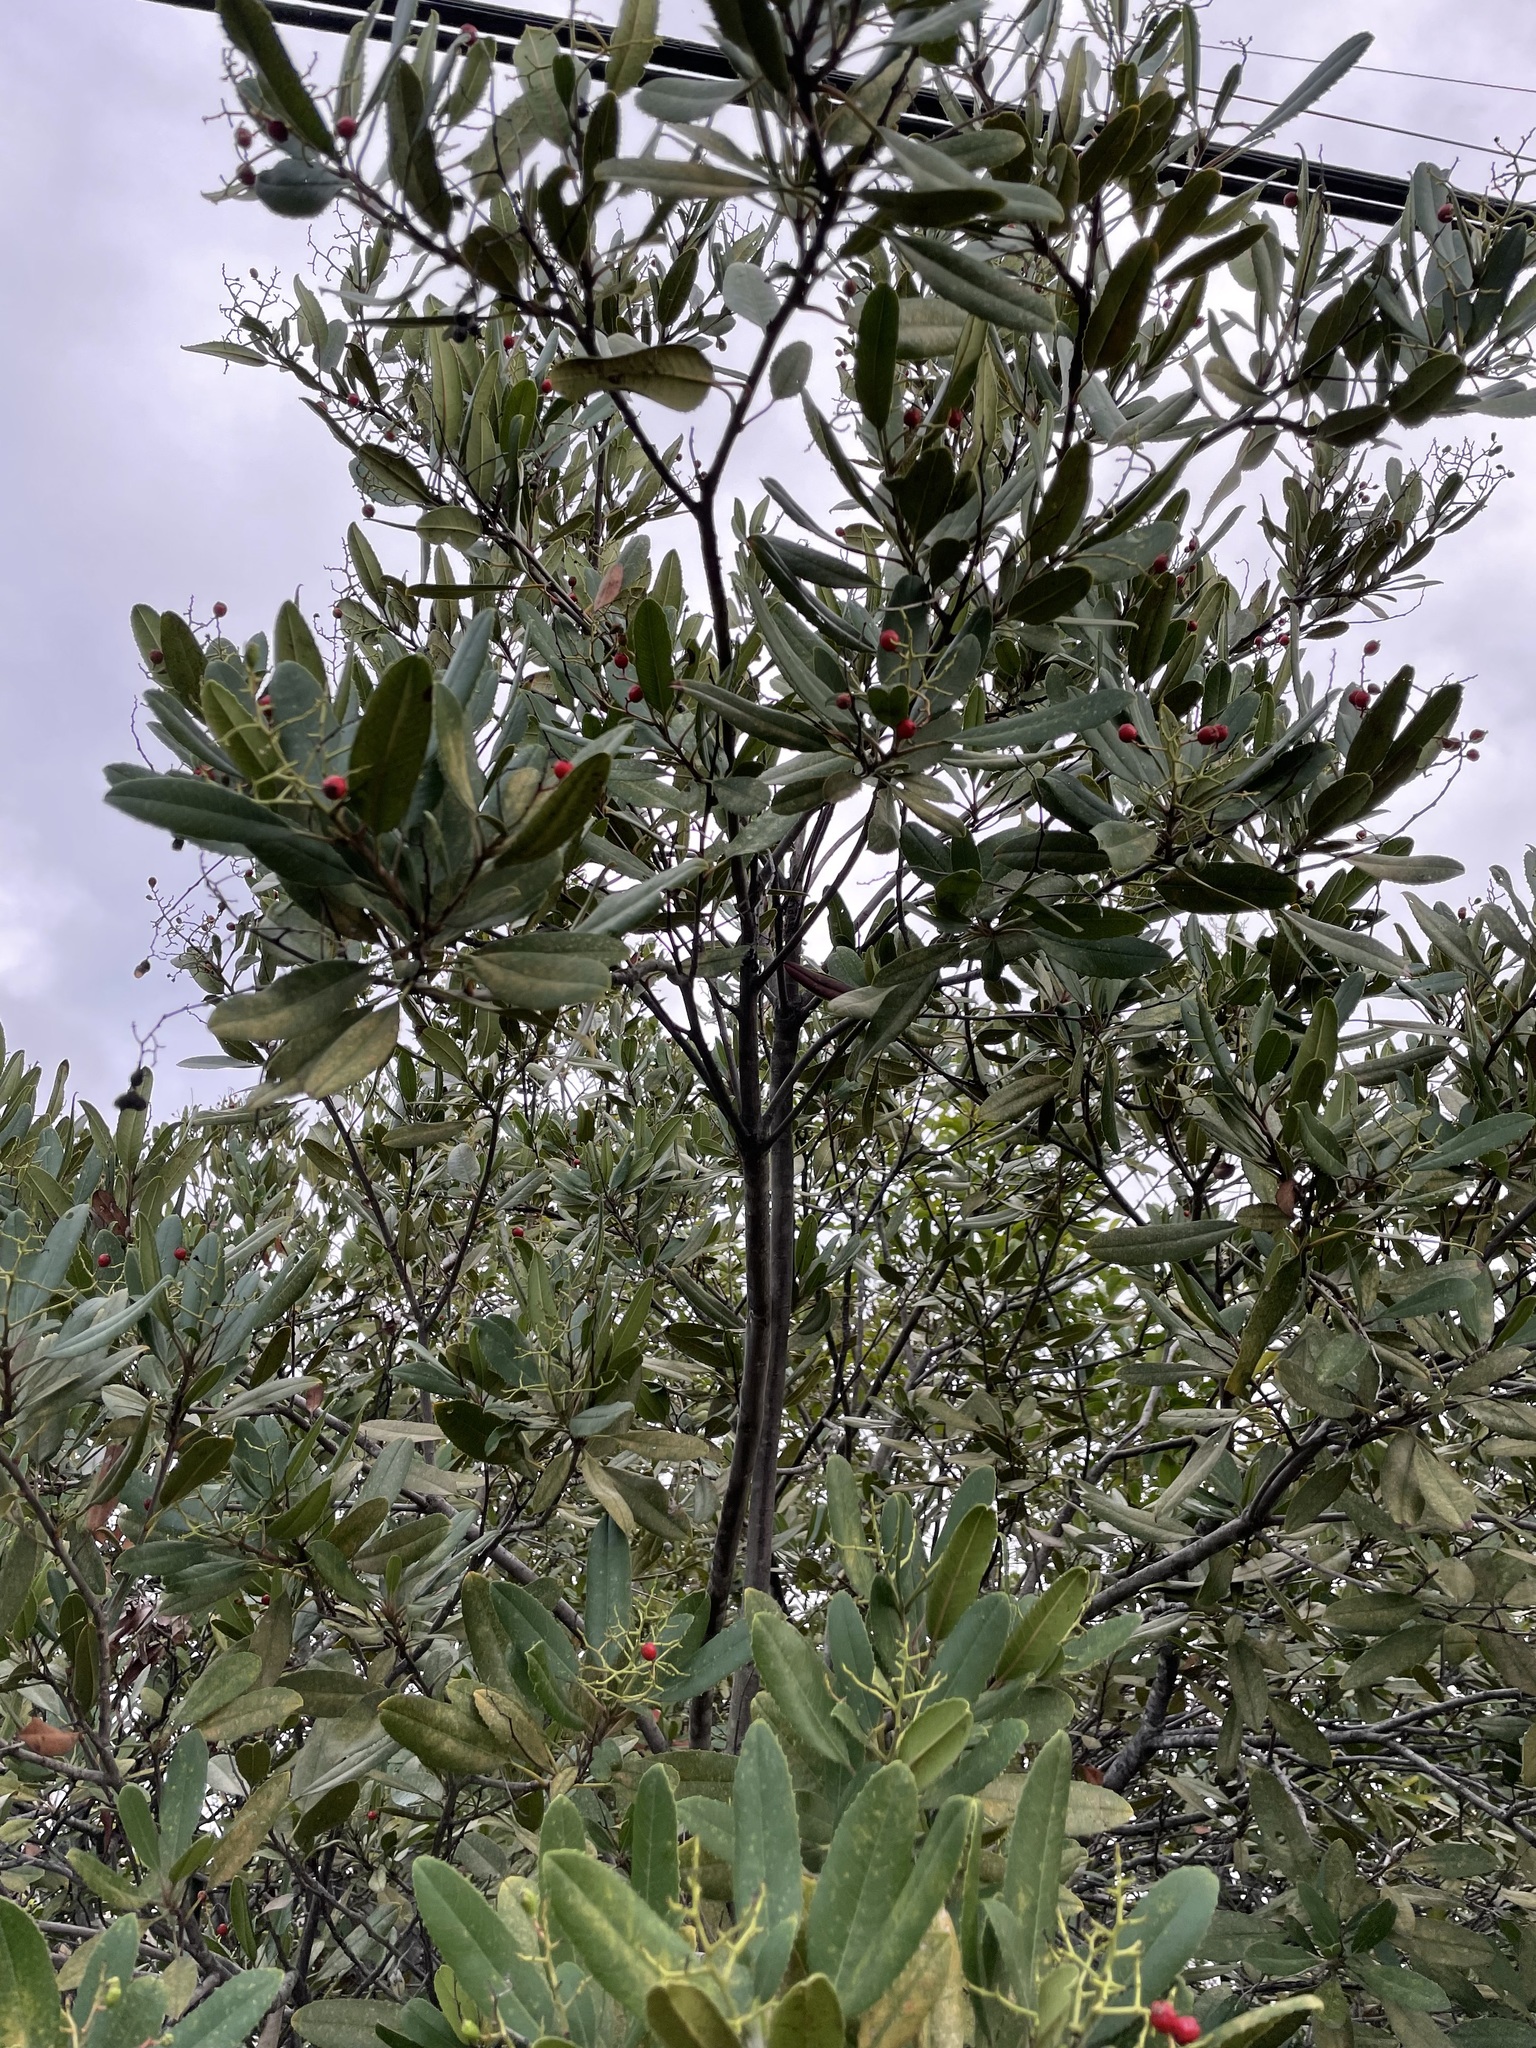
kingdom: Plantae
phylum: Tracheophyta
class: Magnoliopsida
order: Rosales
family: Rosaceae
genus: Heteromeles
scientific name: Heteromeles arbutifolia
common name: California-holly
